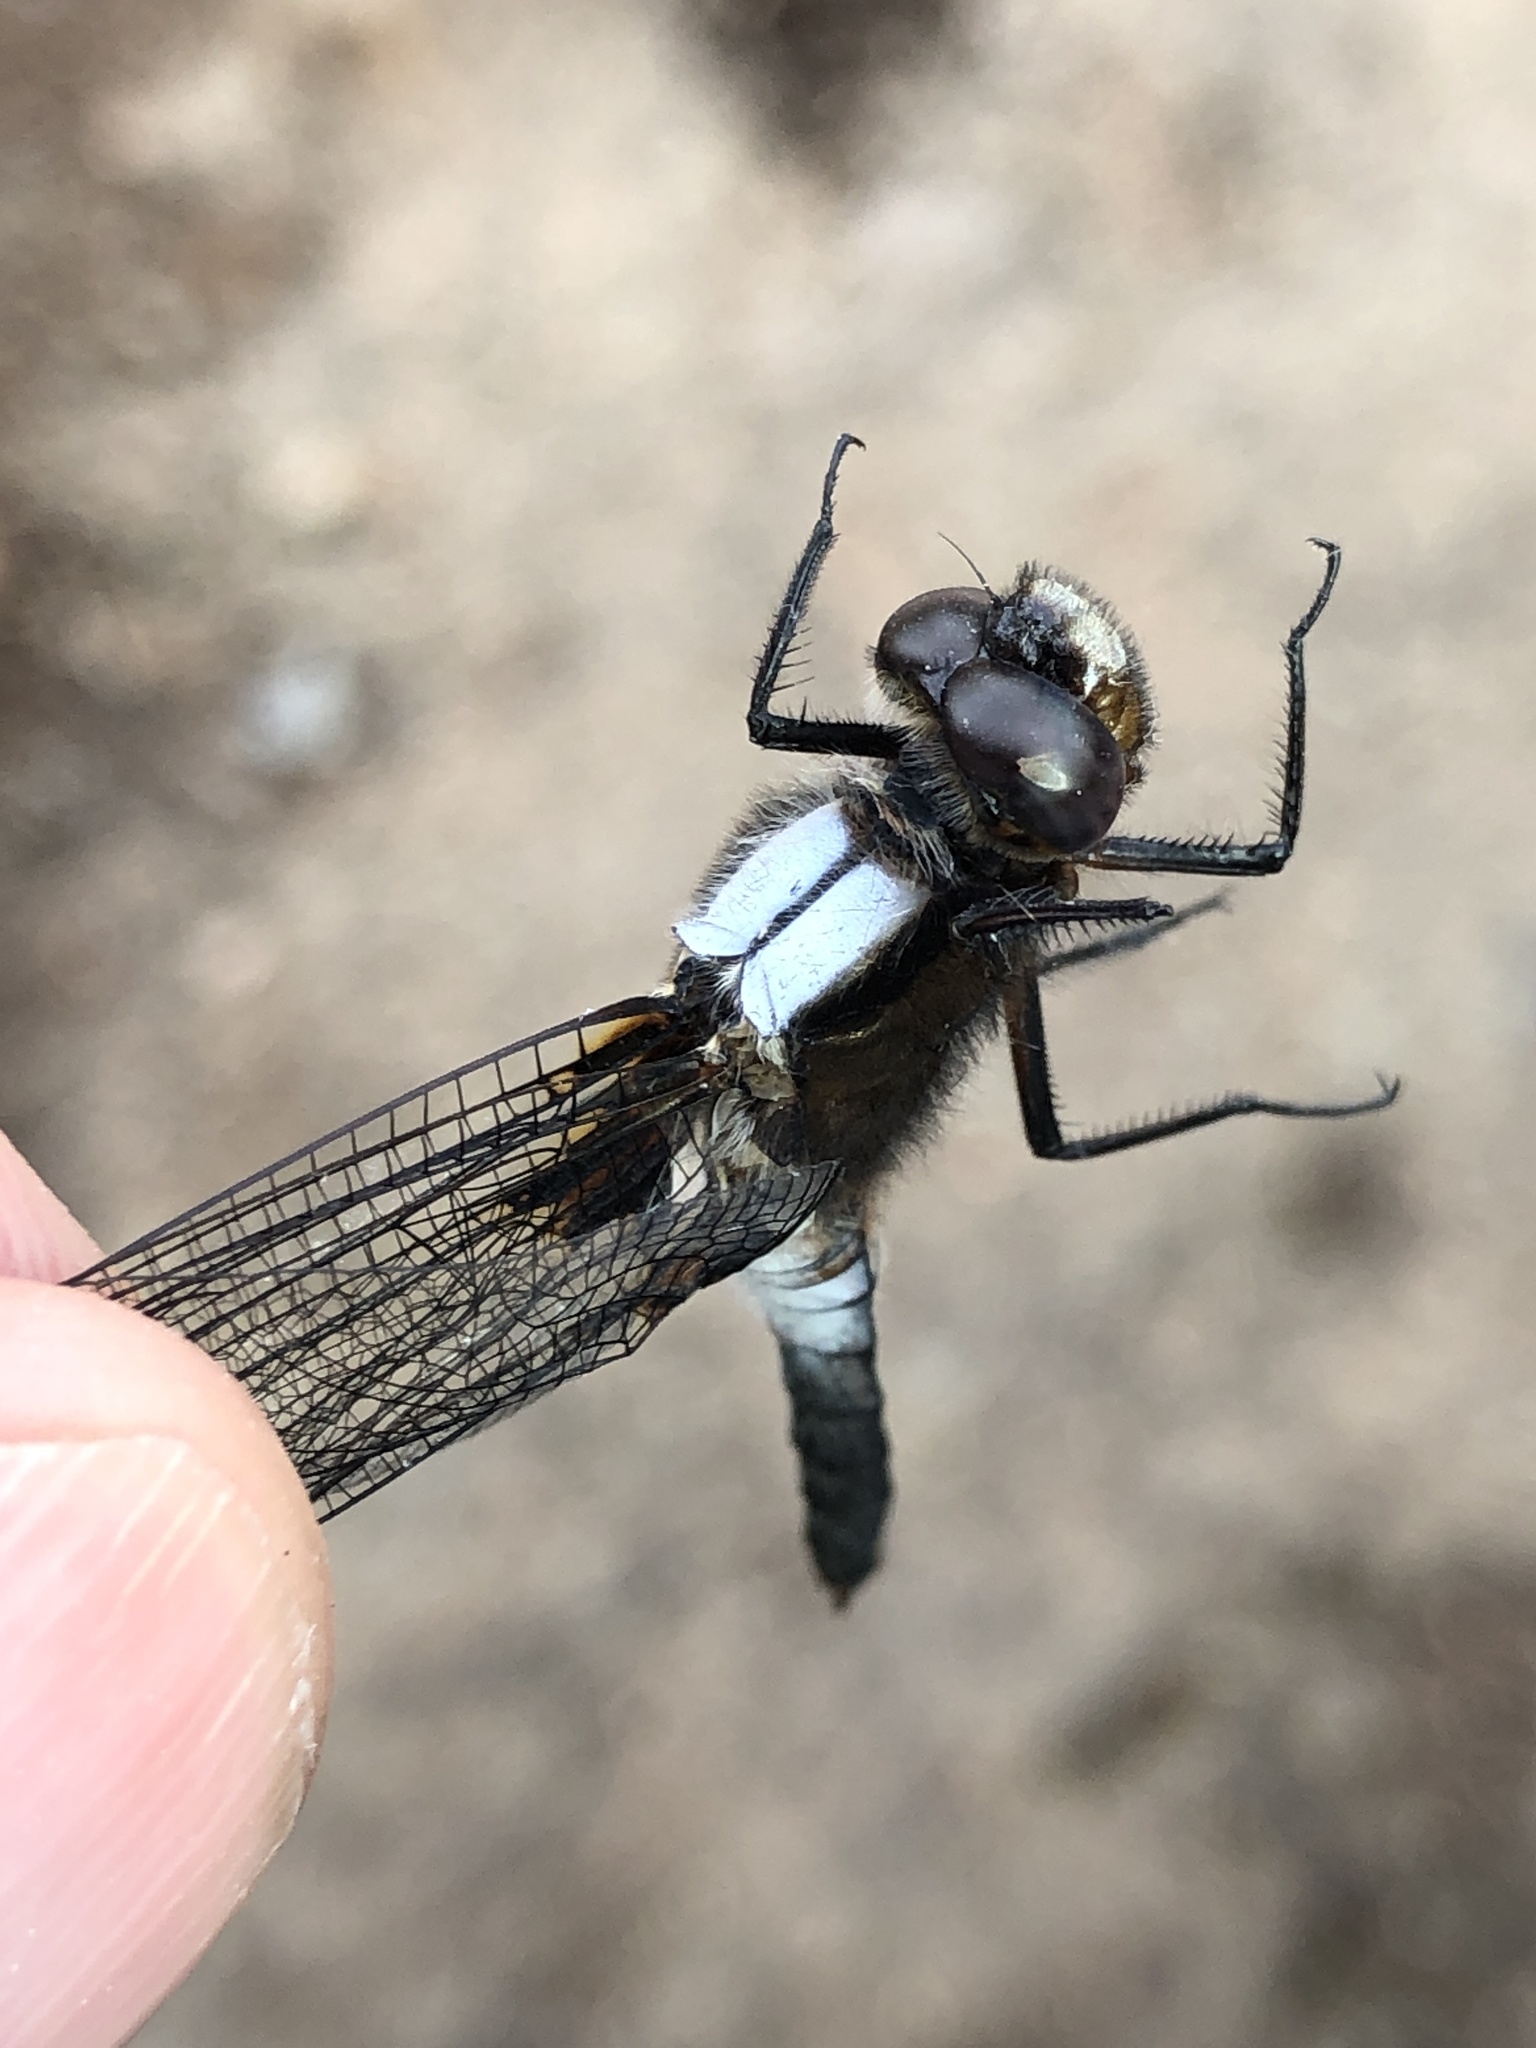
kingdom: Animalia
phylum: Arthropoda
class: Insecta
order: Odonata
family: Libellulidae
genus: Ladona
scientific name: Ladona julia
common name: Chalk-fronted corporal
